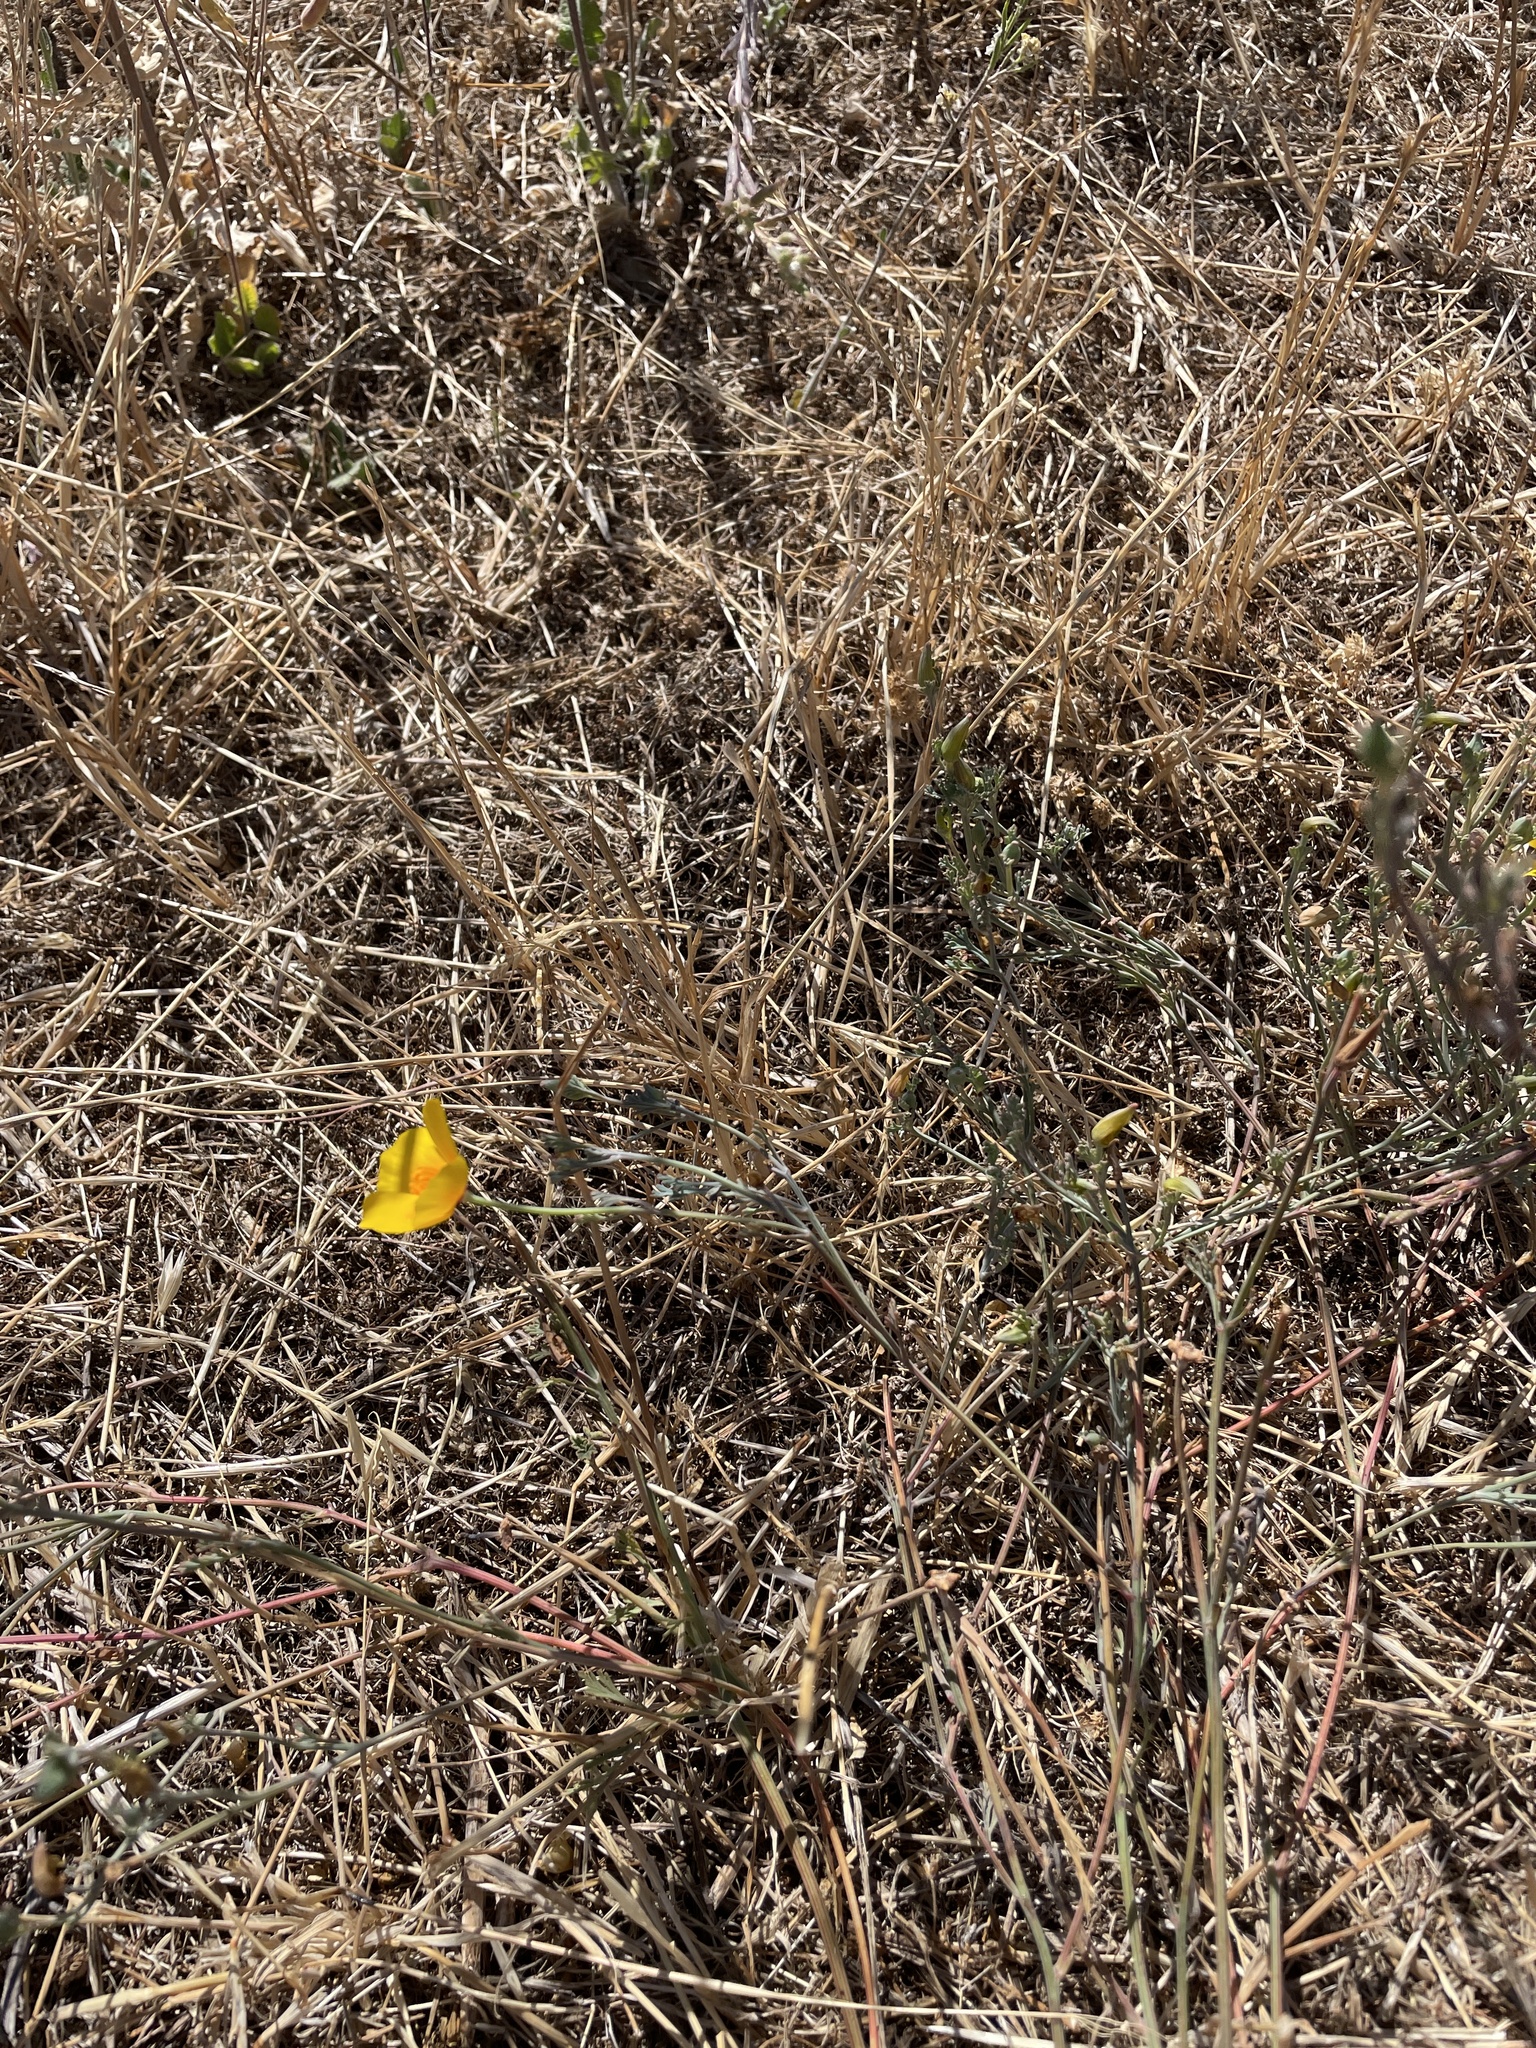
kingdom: Plantae
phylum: Tracheophyta
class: Magnoliopsida
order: Ranunculales
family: Papaveraceae
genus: Eschscholzia
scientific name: Eschscholzia californica
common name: California poppy
